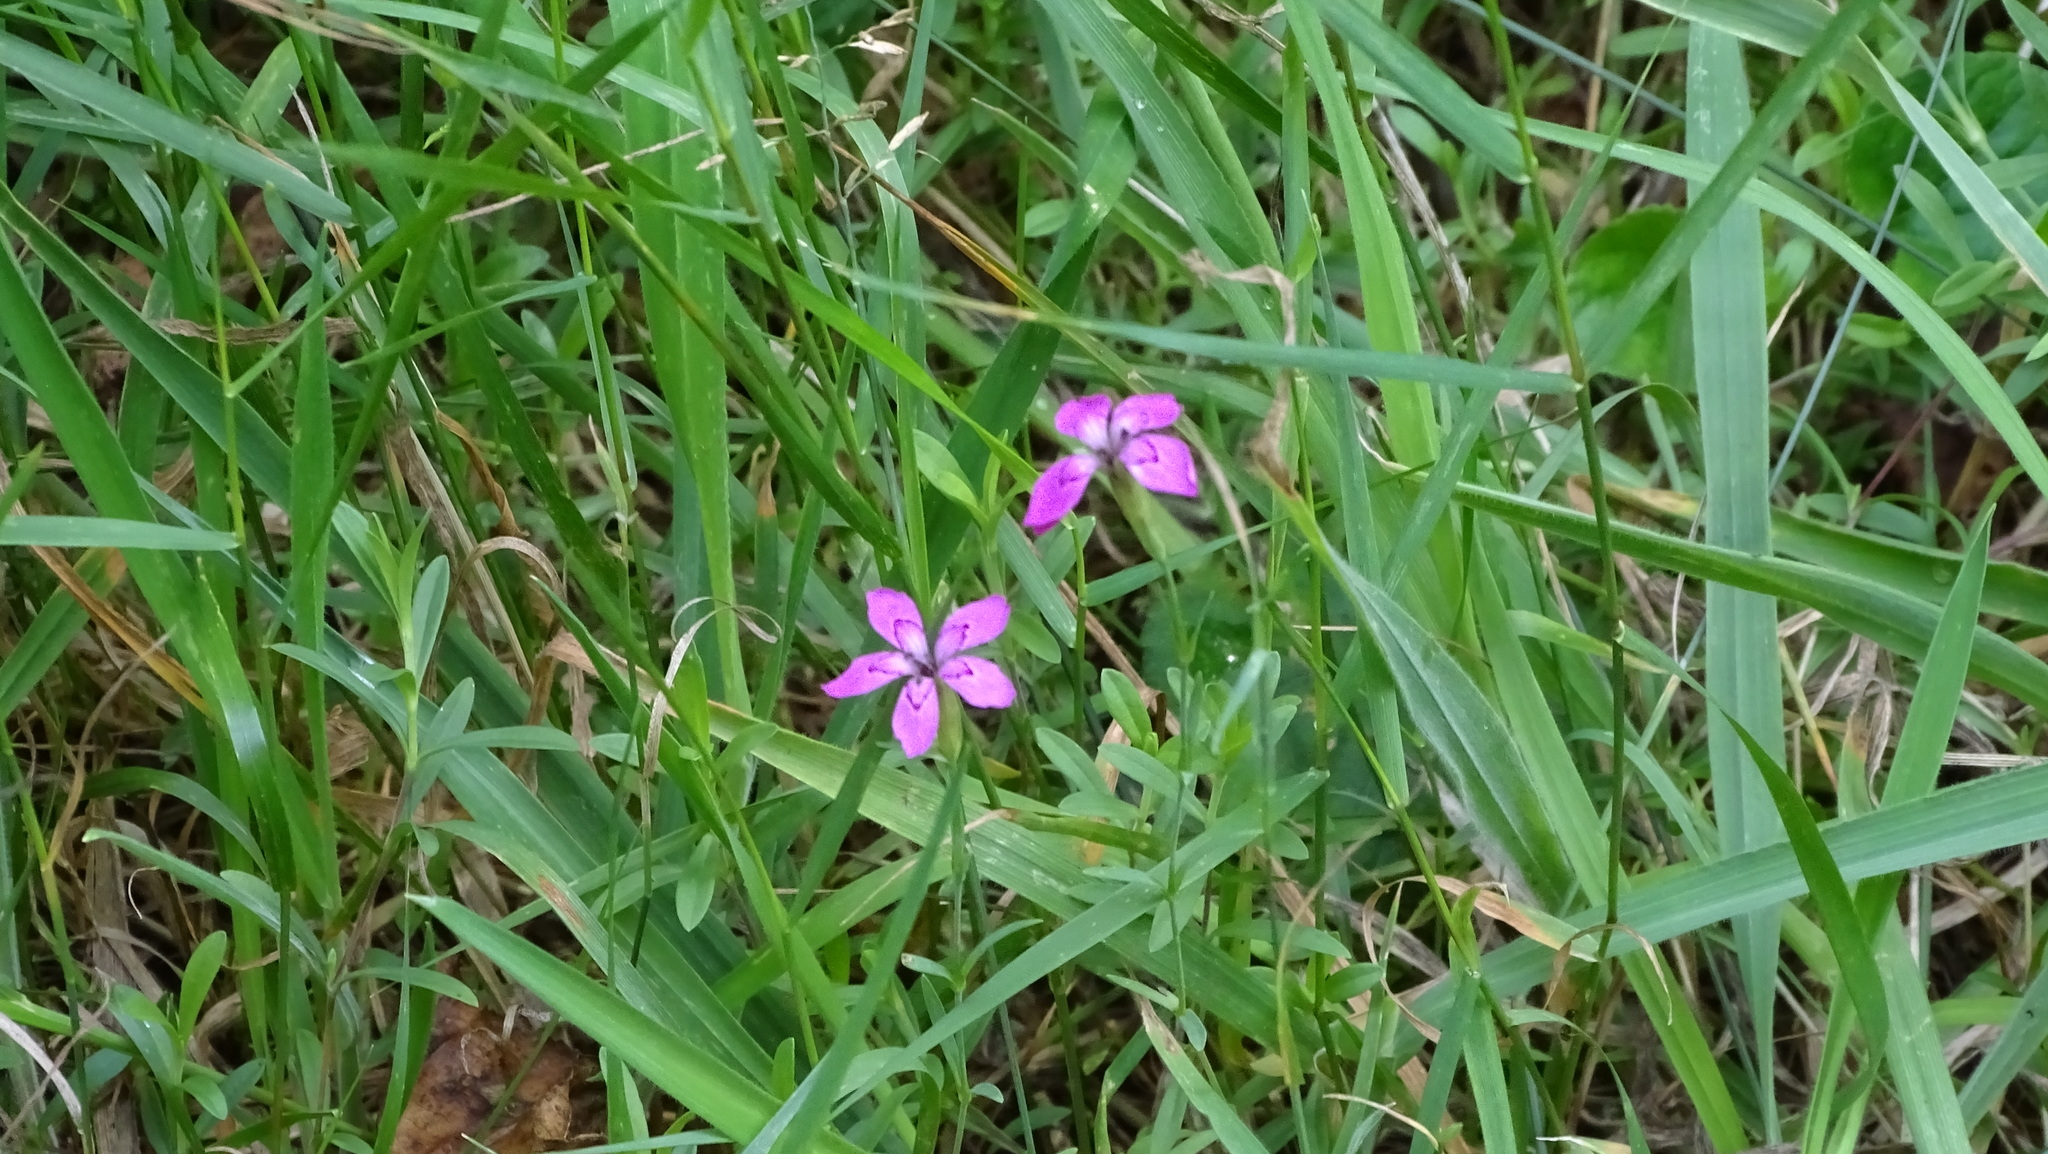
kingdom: Plantae
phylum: Tracheophyta
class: Magnoliopsida
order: Caryophyllales
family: Caryophyllaceae
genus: Dianthus
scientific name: Dianthus deltoides
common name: Maiden pink
